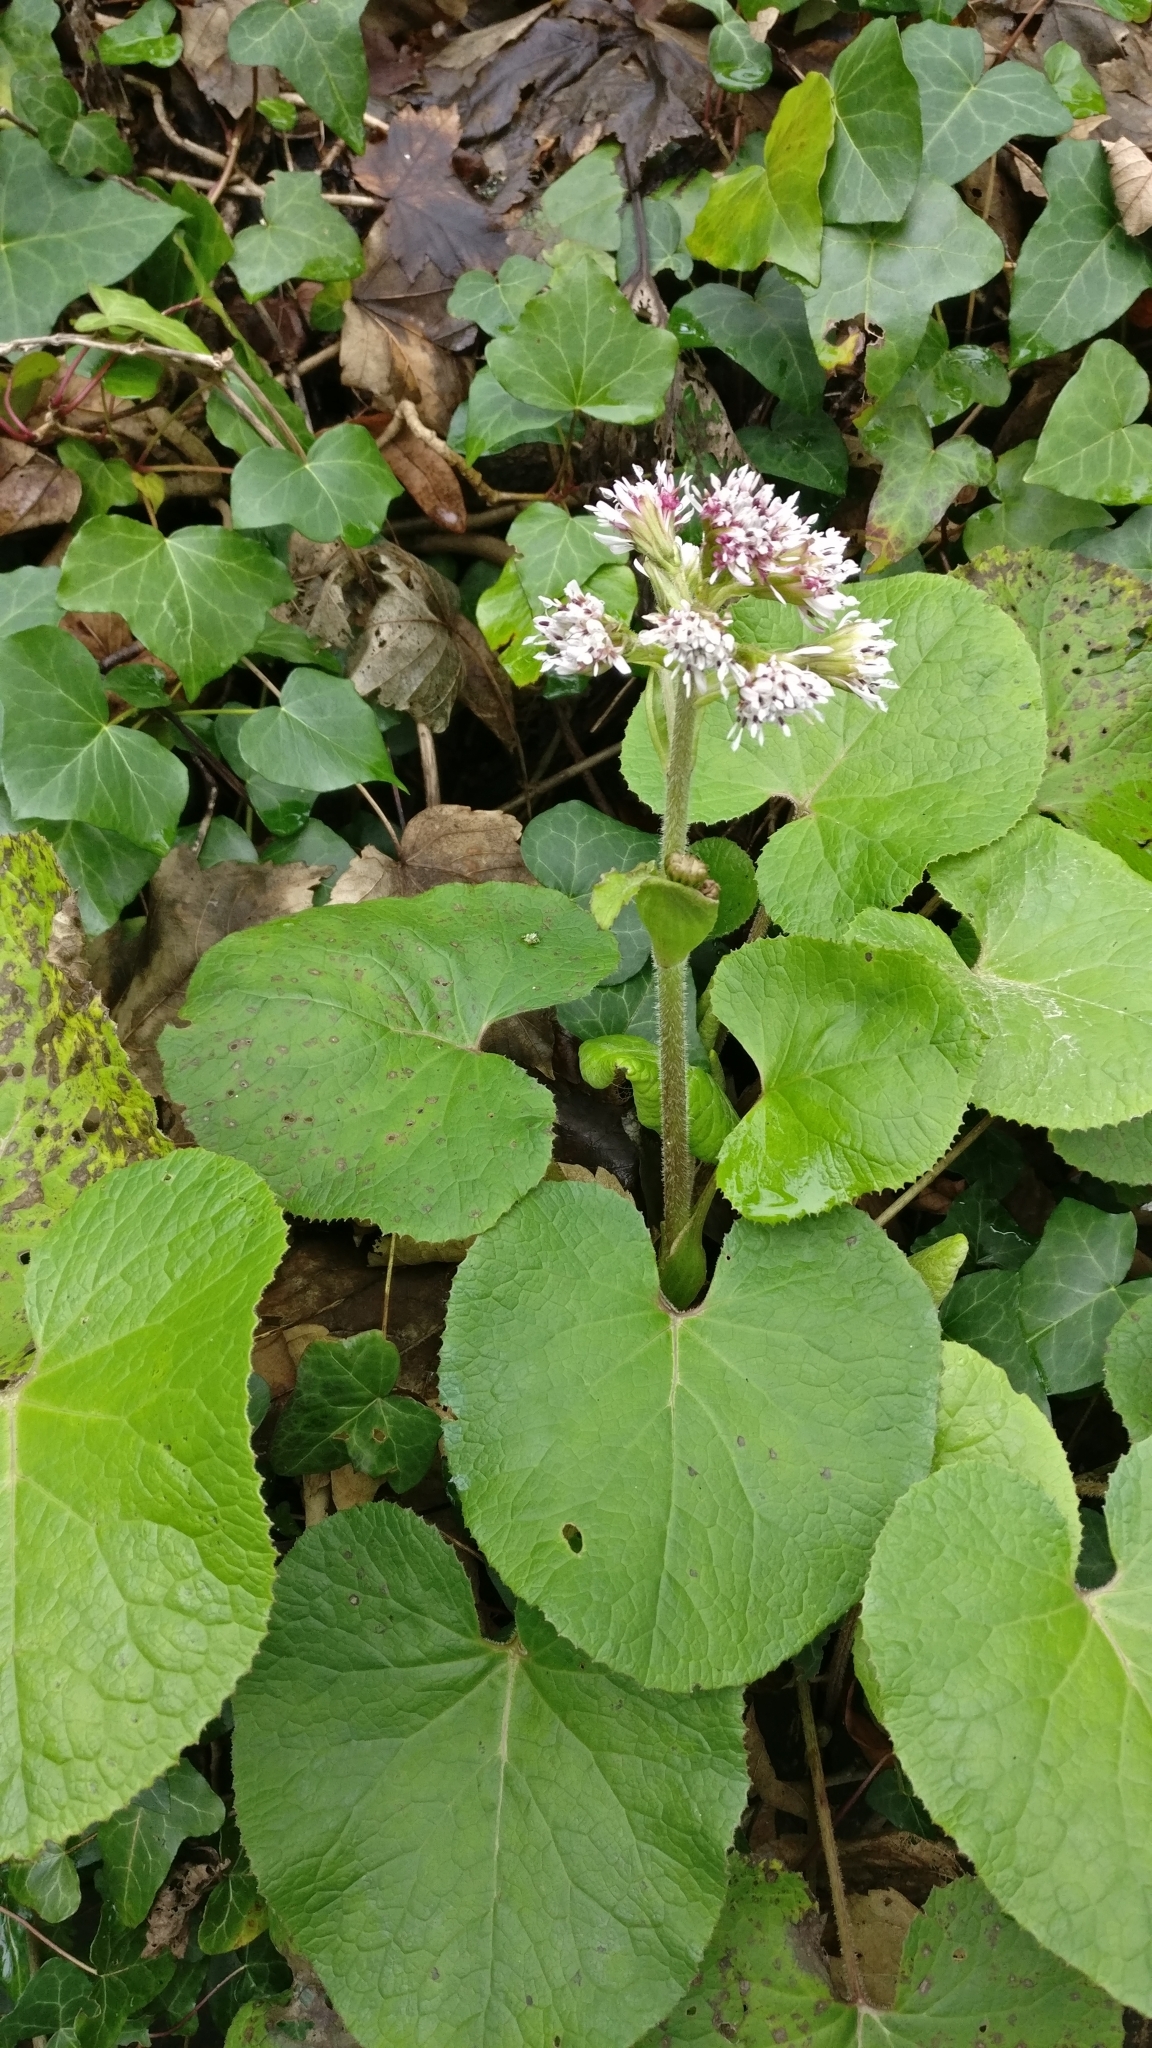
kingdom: Plantae
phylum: Tracheophyta
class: Magnoliopsida
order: Asterales
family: Asteraceae
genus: Petasites
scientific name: Petasites pyrenaicus
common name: Winter heliotrope
